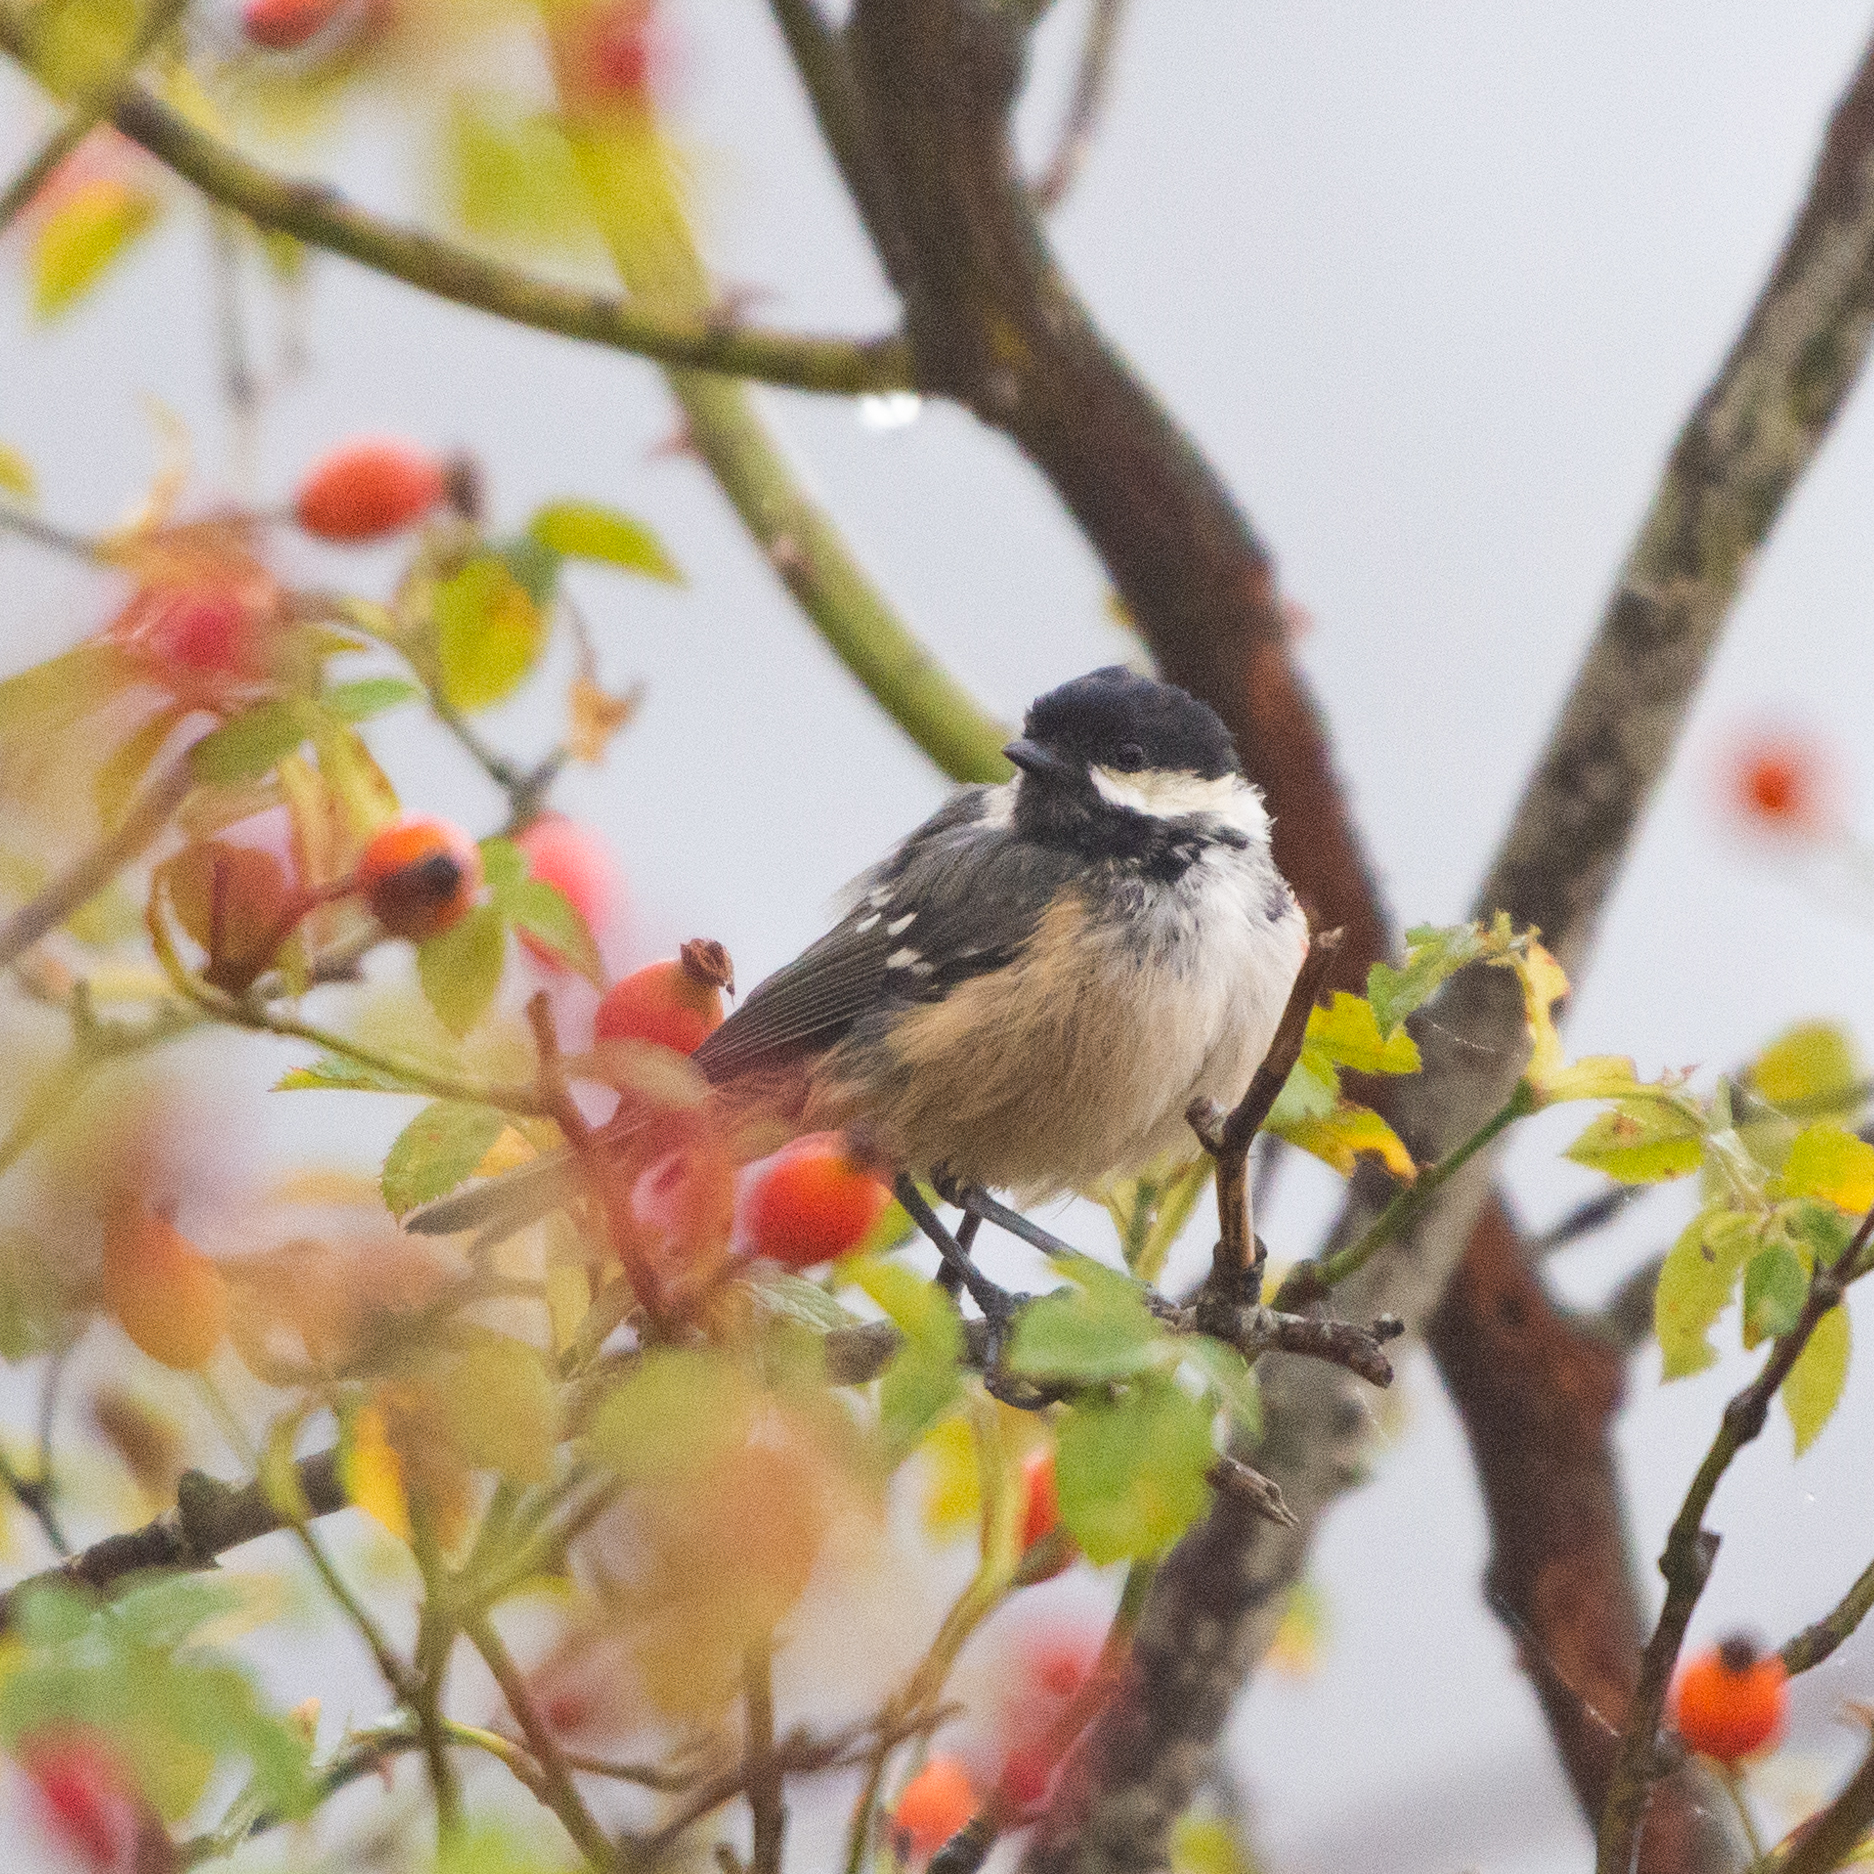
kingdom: Animalia
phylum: Chordata
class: Aves
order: Passeriformes
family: Paridae
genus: Periparus
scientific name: Periparus ater
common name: Coal tit
